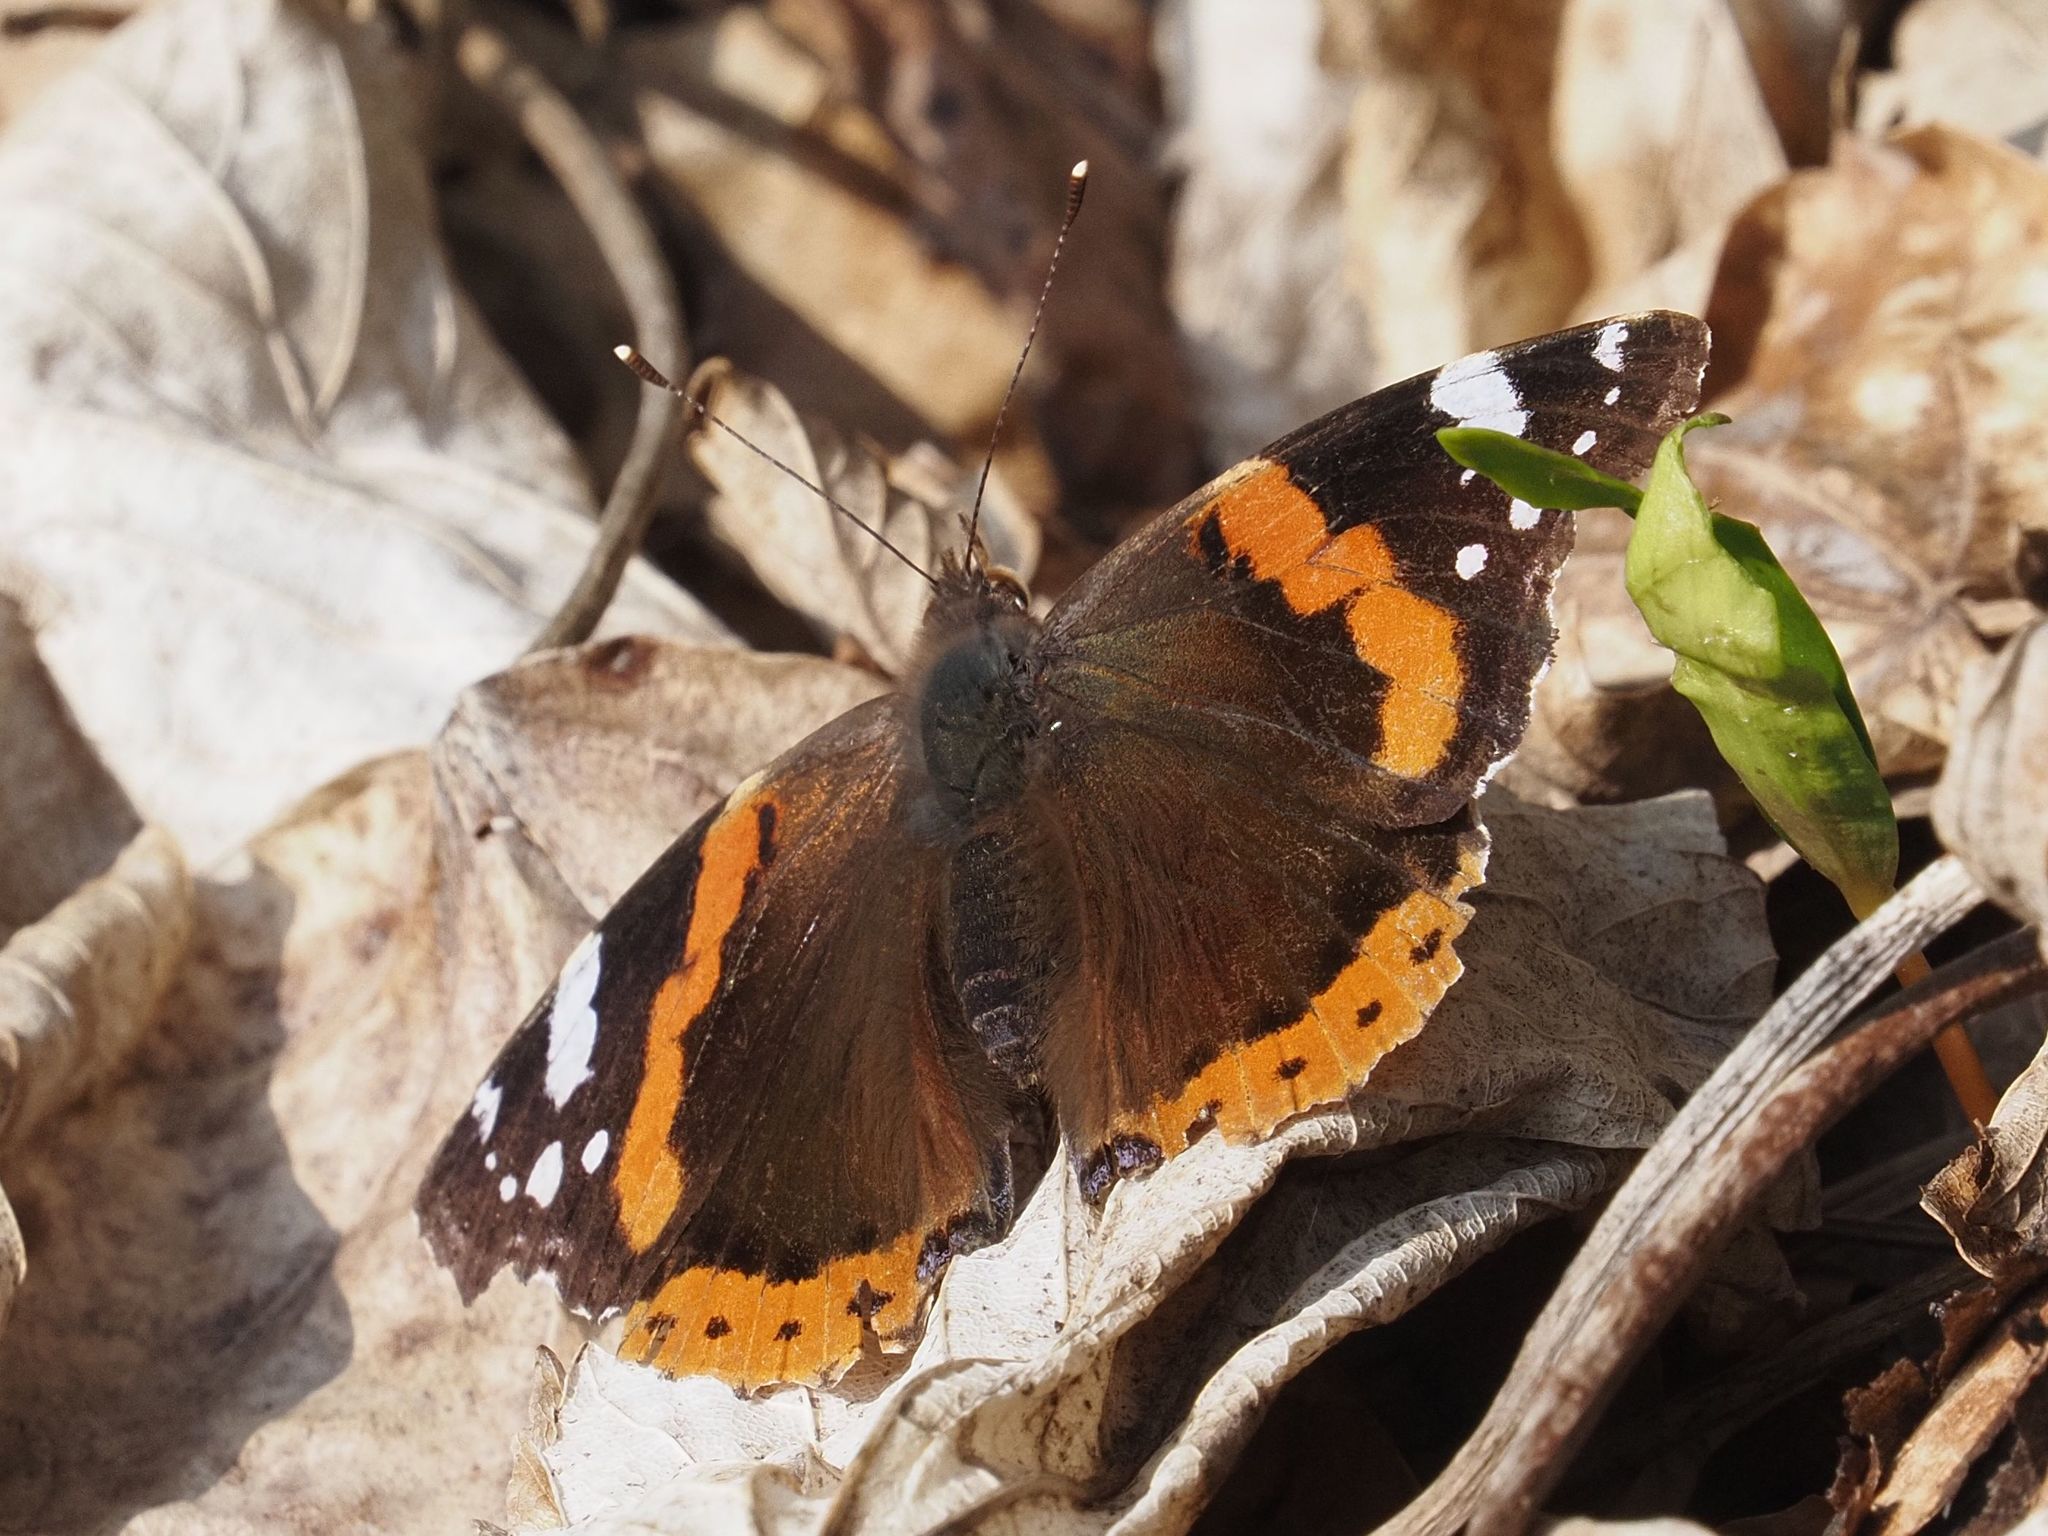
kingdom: Animalia
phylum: Arthropoda
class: Insecta
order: Lepidoptera
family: Nymphalidae
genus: Vanessa
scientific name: Vanessa atalanta
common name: Red admiral
